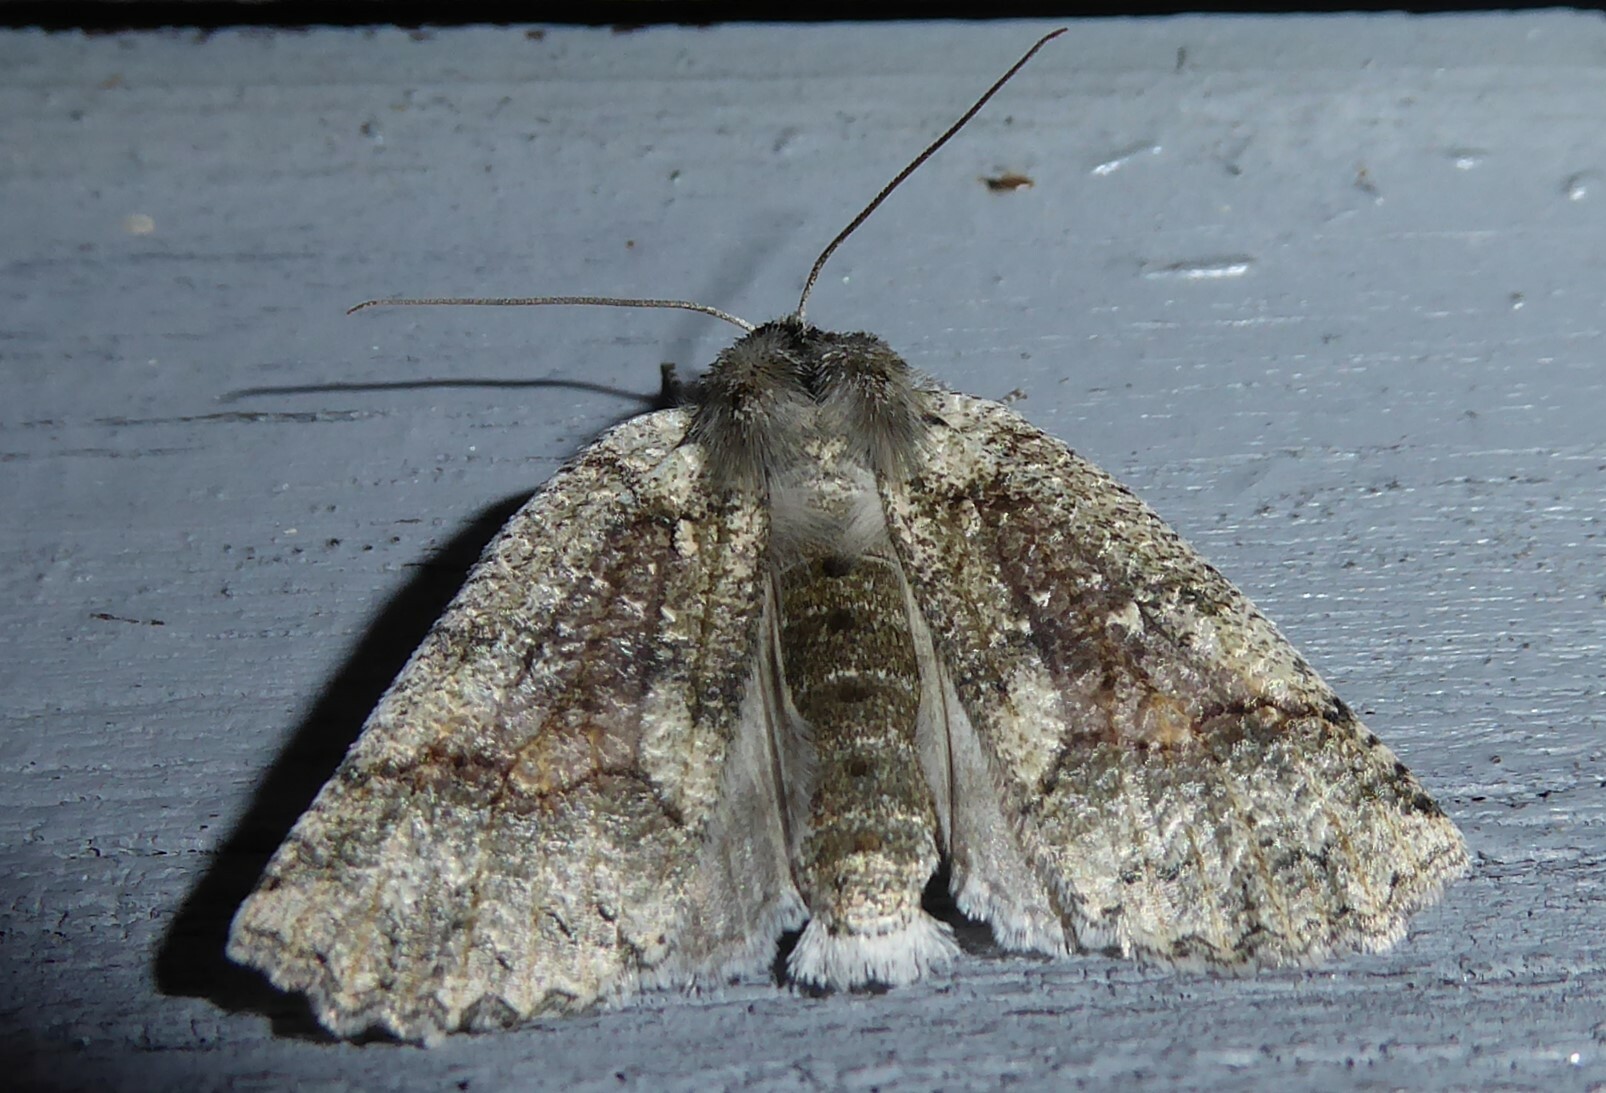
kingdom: Animalia
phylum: Arthropoda
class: Insecta
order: Lepidoptera
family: Geometridae
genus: Declana
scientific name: Declana floccosa
